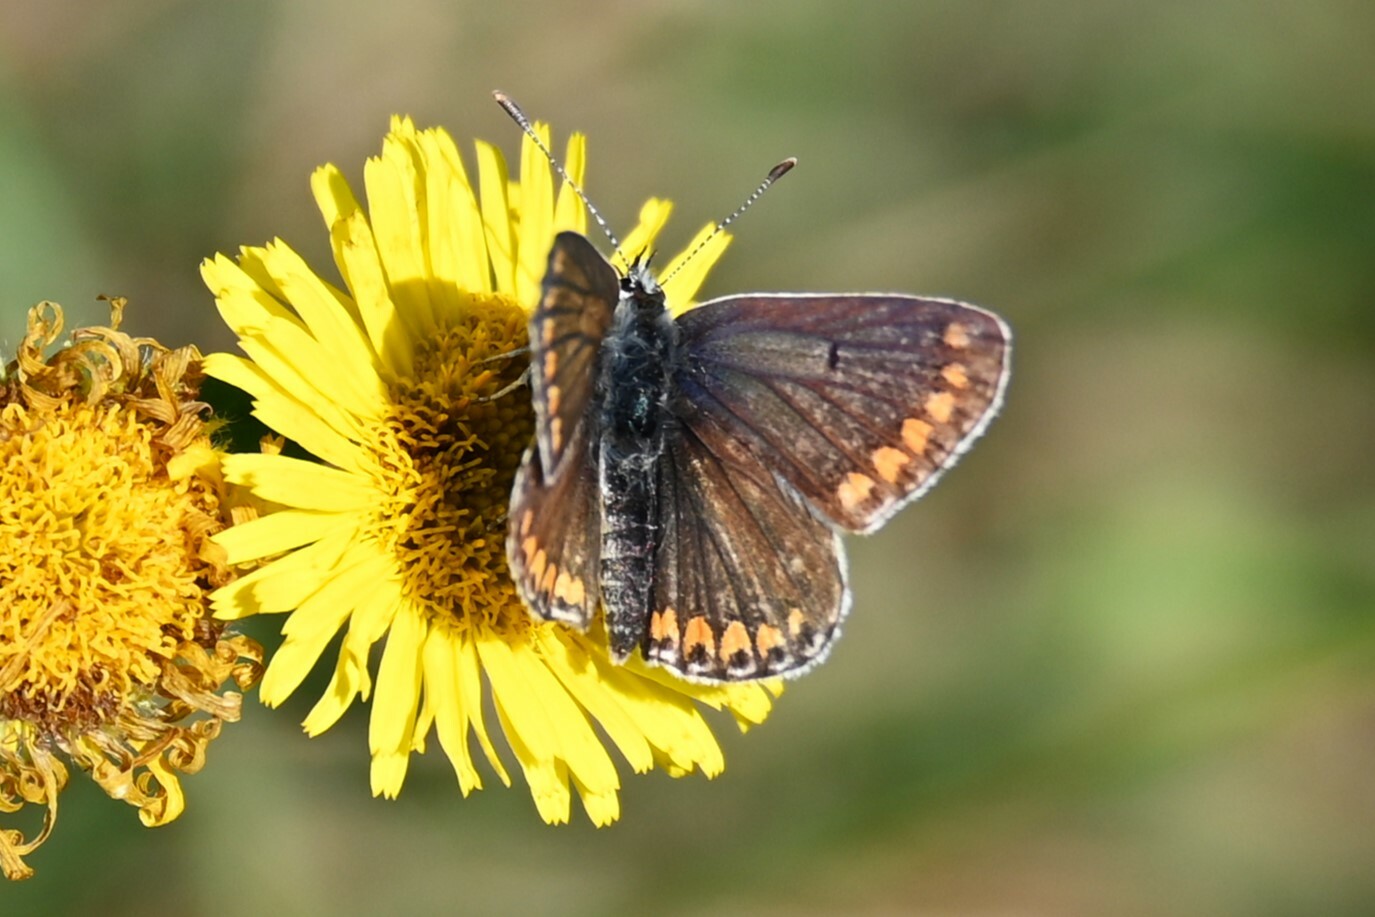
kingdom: Animalia
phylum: Arthropoda
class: Insecta
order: Lepidoptera
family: Lycaenidae
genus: Aricia
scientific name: Aricia agestis
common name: Brown argus
